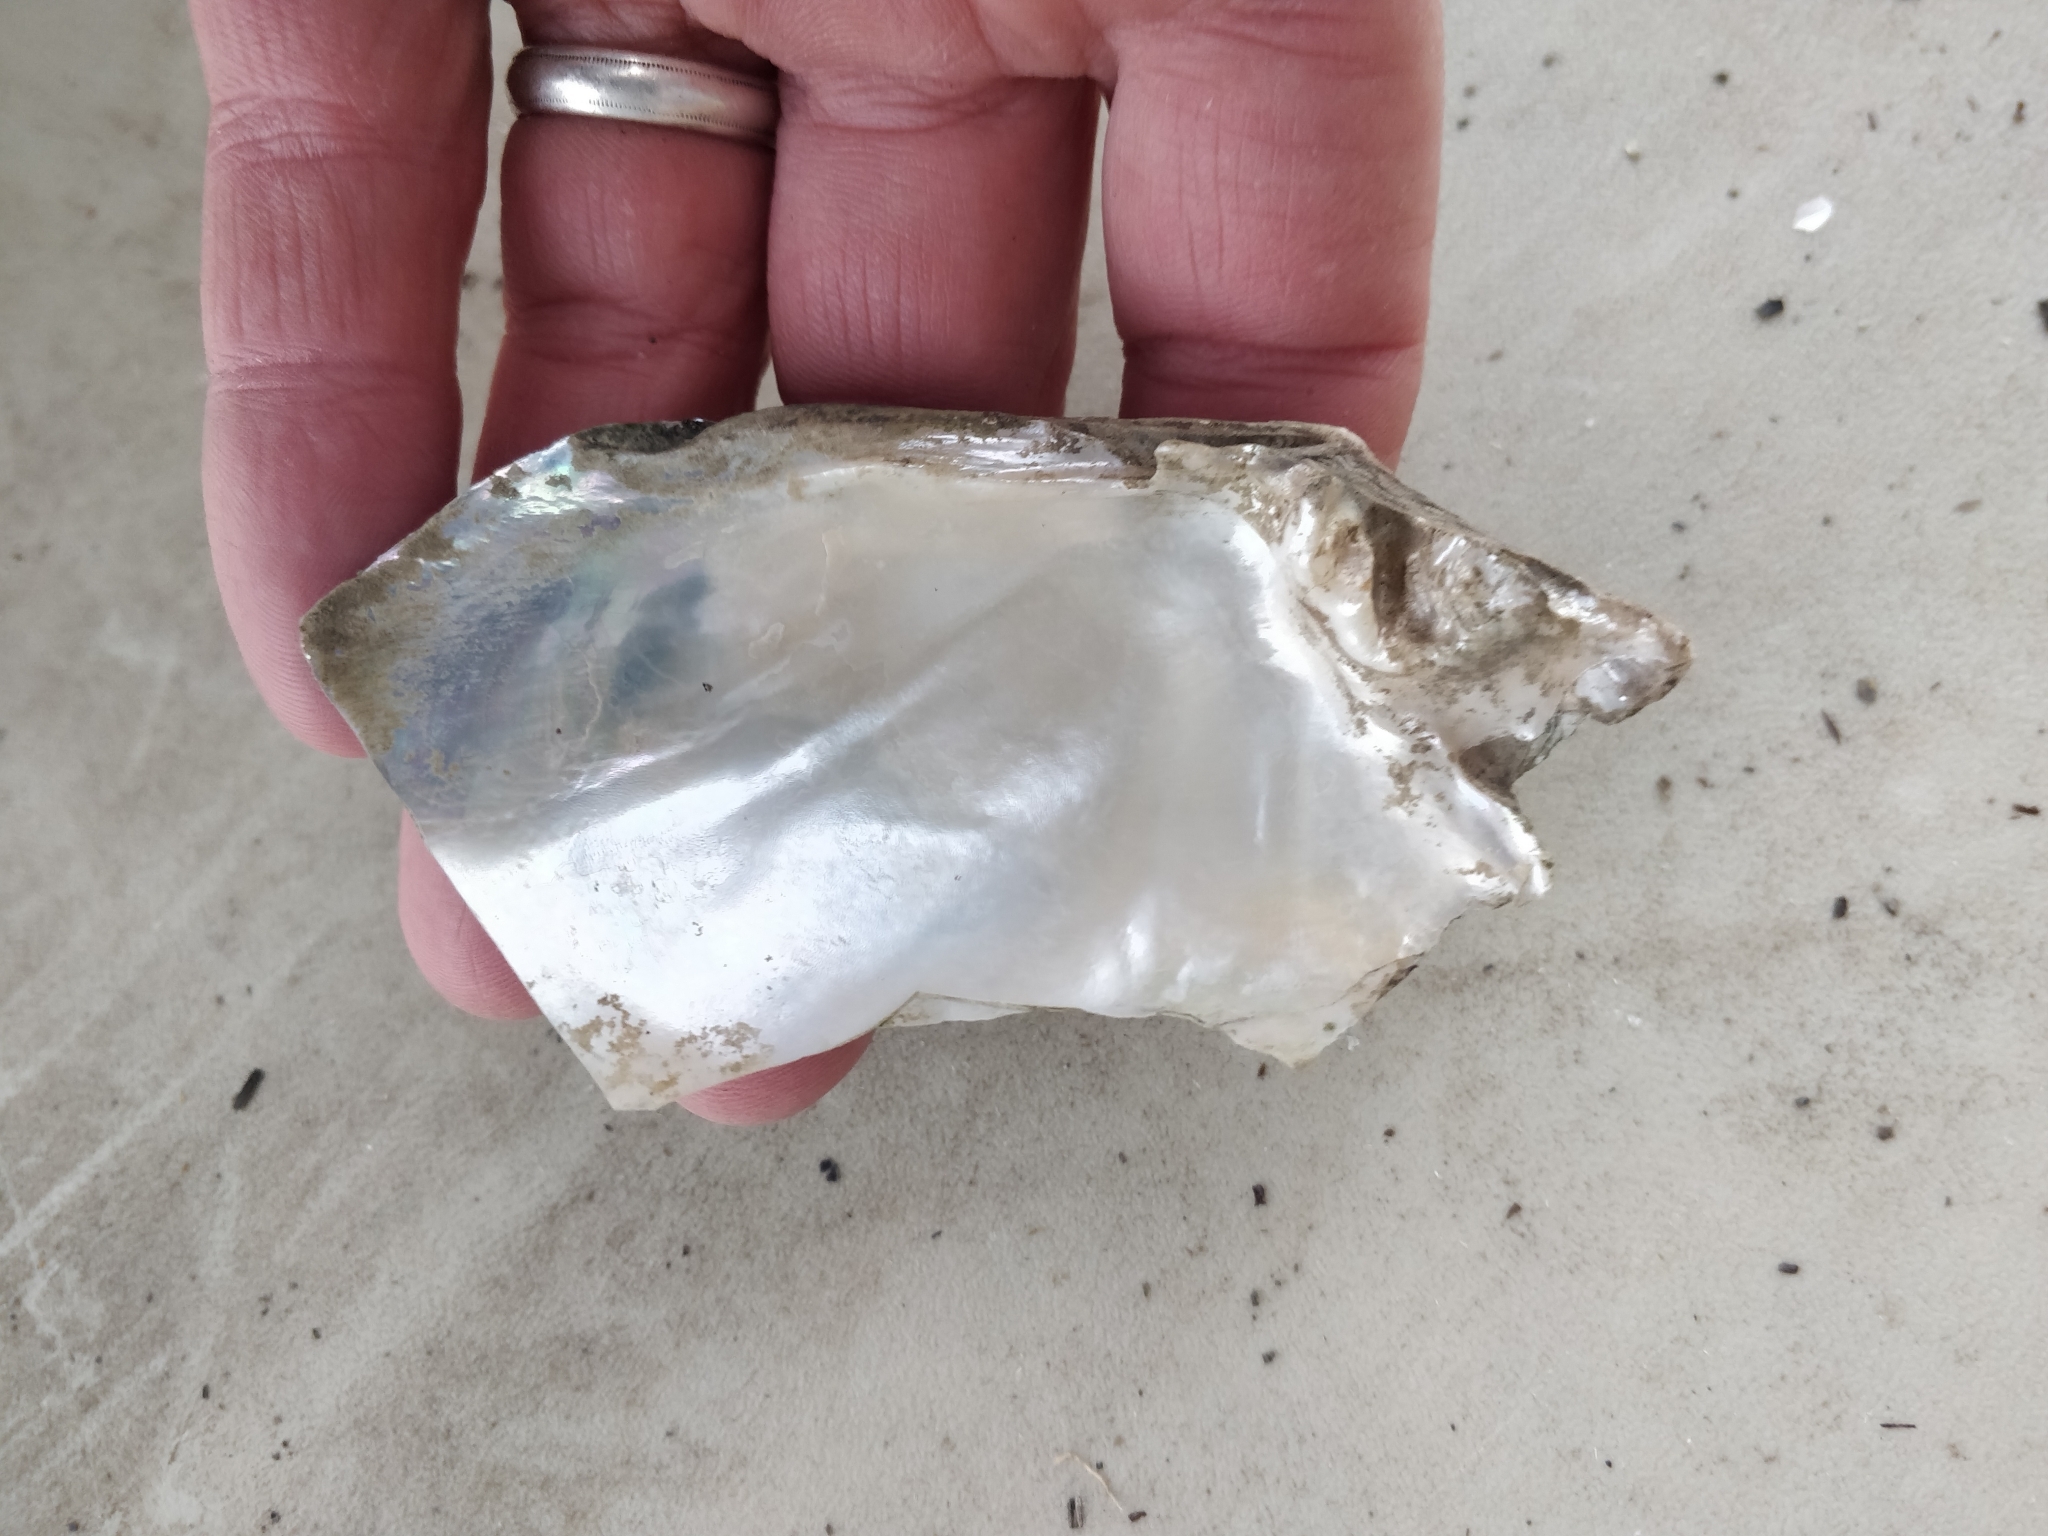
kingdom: Animalia
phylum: Mollusca
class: Bivalvia
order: Unionida
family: Unionidae
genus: Lasmigona
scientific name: Lasmigona complanata
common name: White heelsplitter
